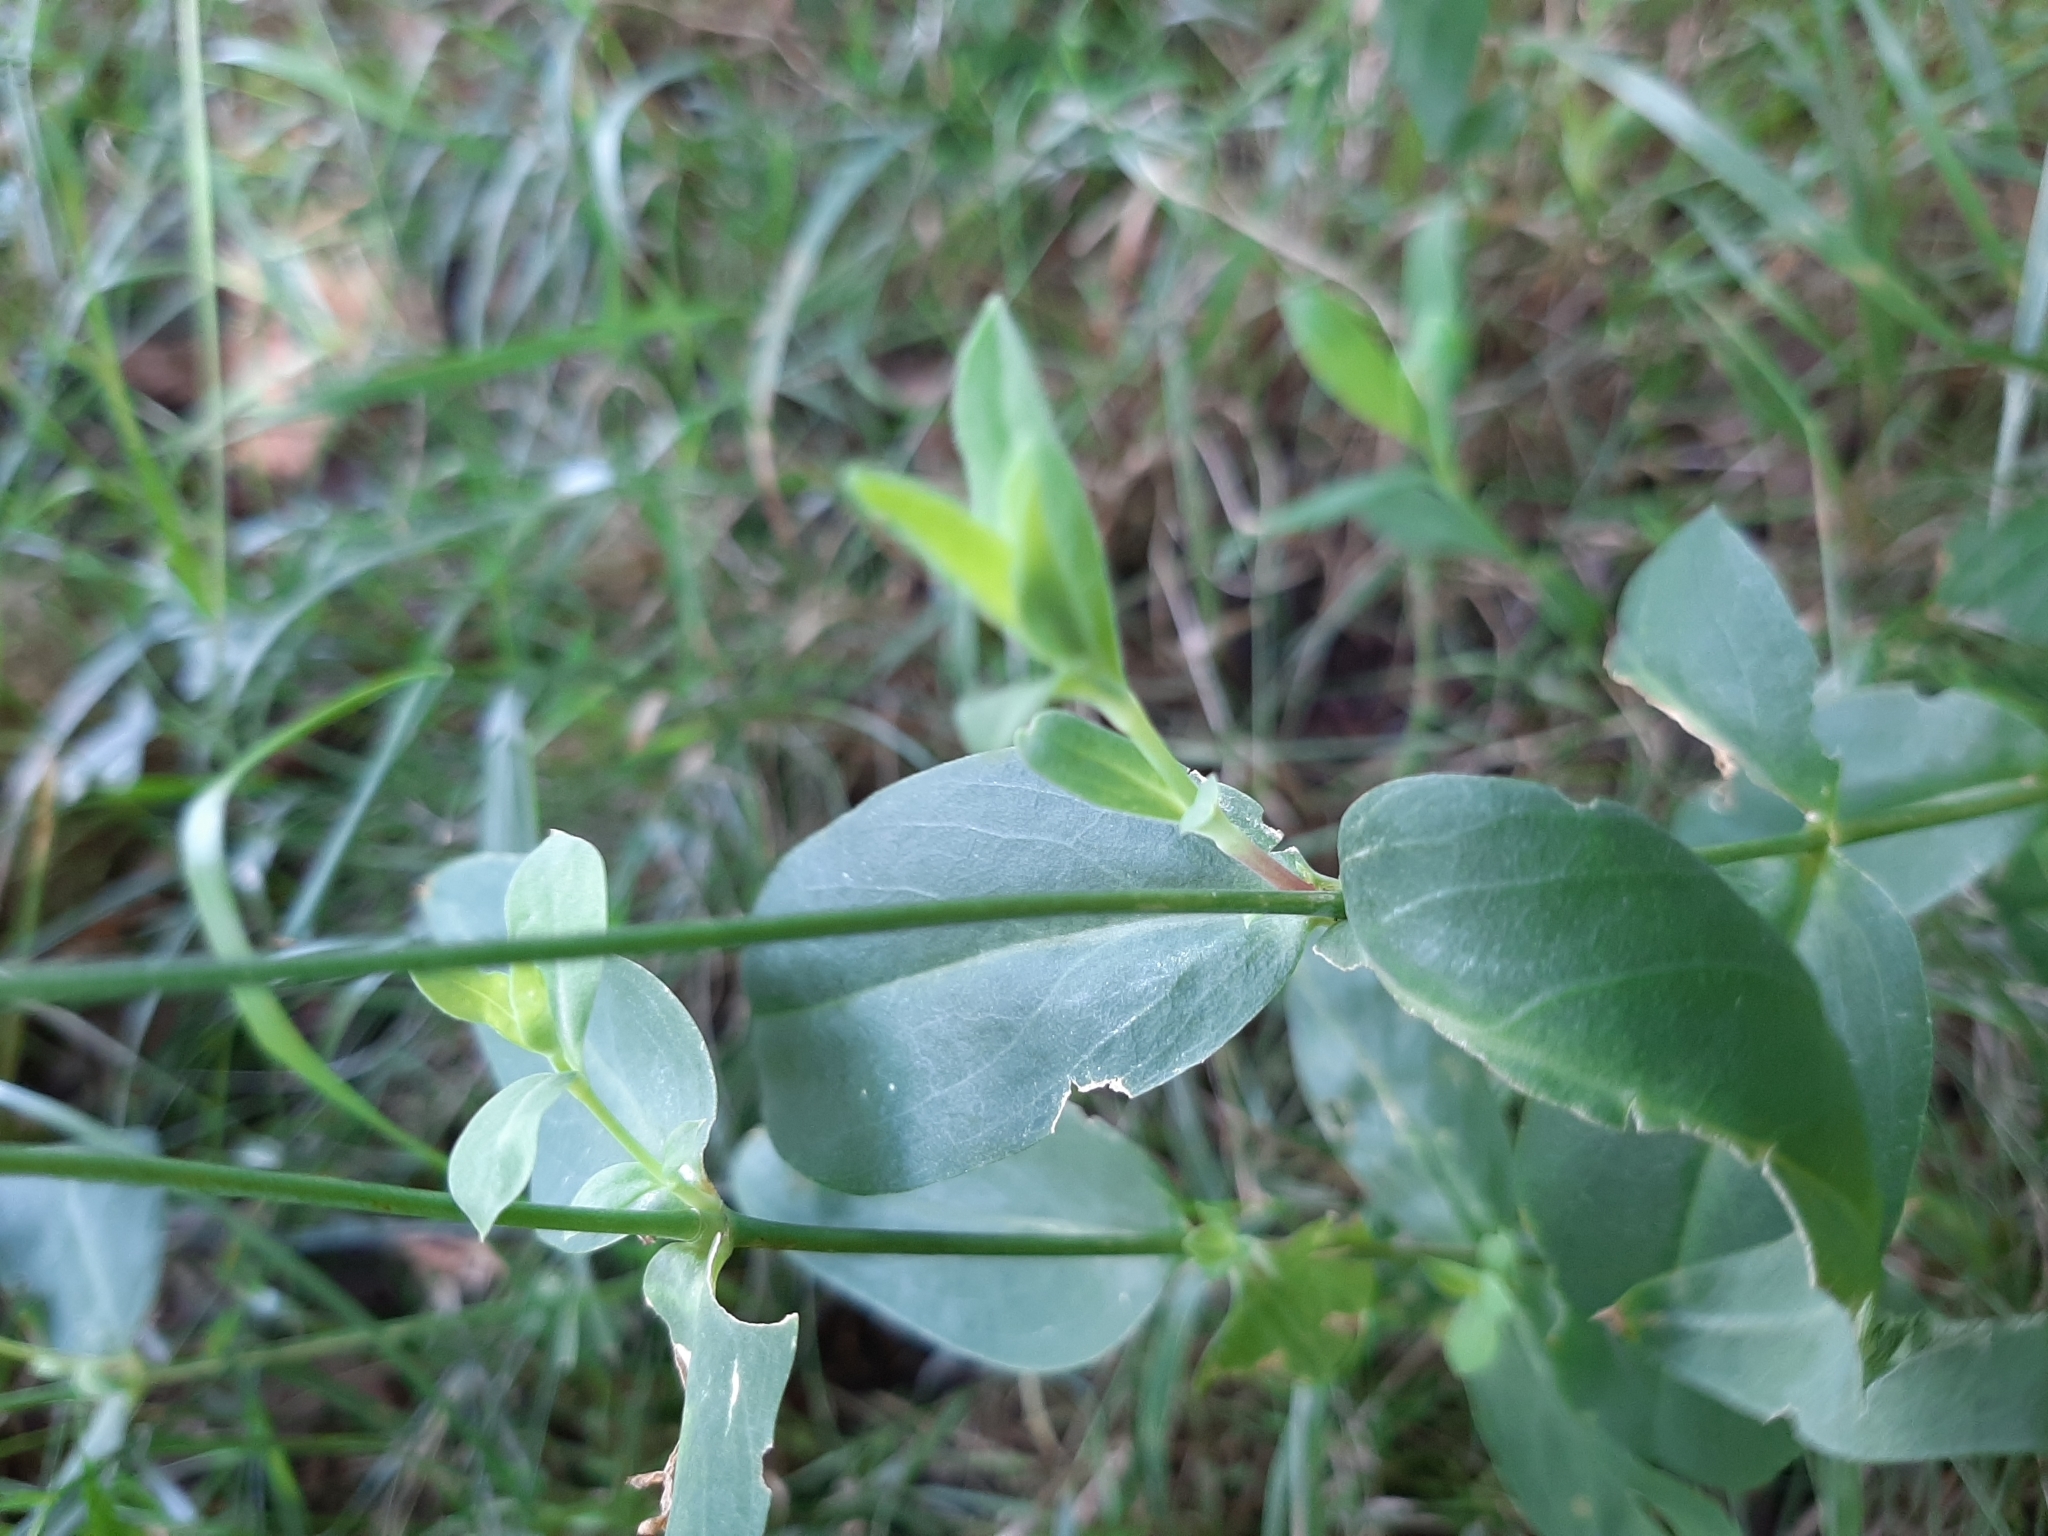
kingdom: Plantae
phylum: Tracheophyta
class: Magnoliopsida
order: Caryophyllales
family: Caryophyllaceae
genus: Silene
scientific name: Silene vulgaris
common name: Bladder campion
